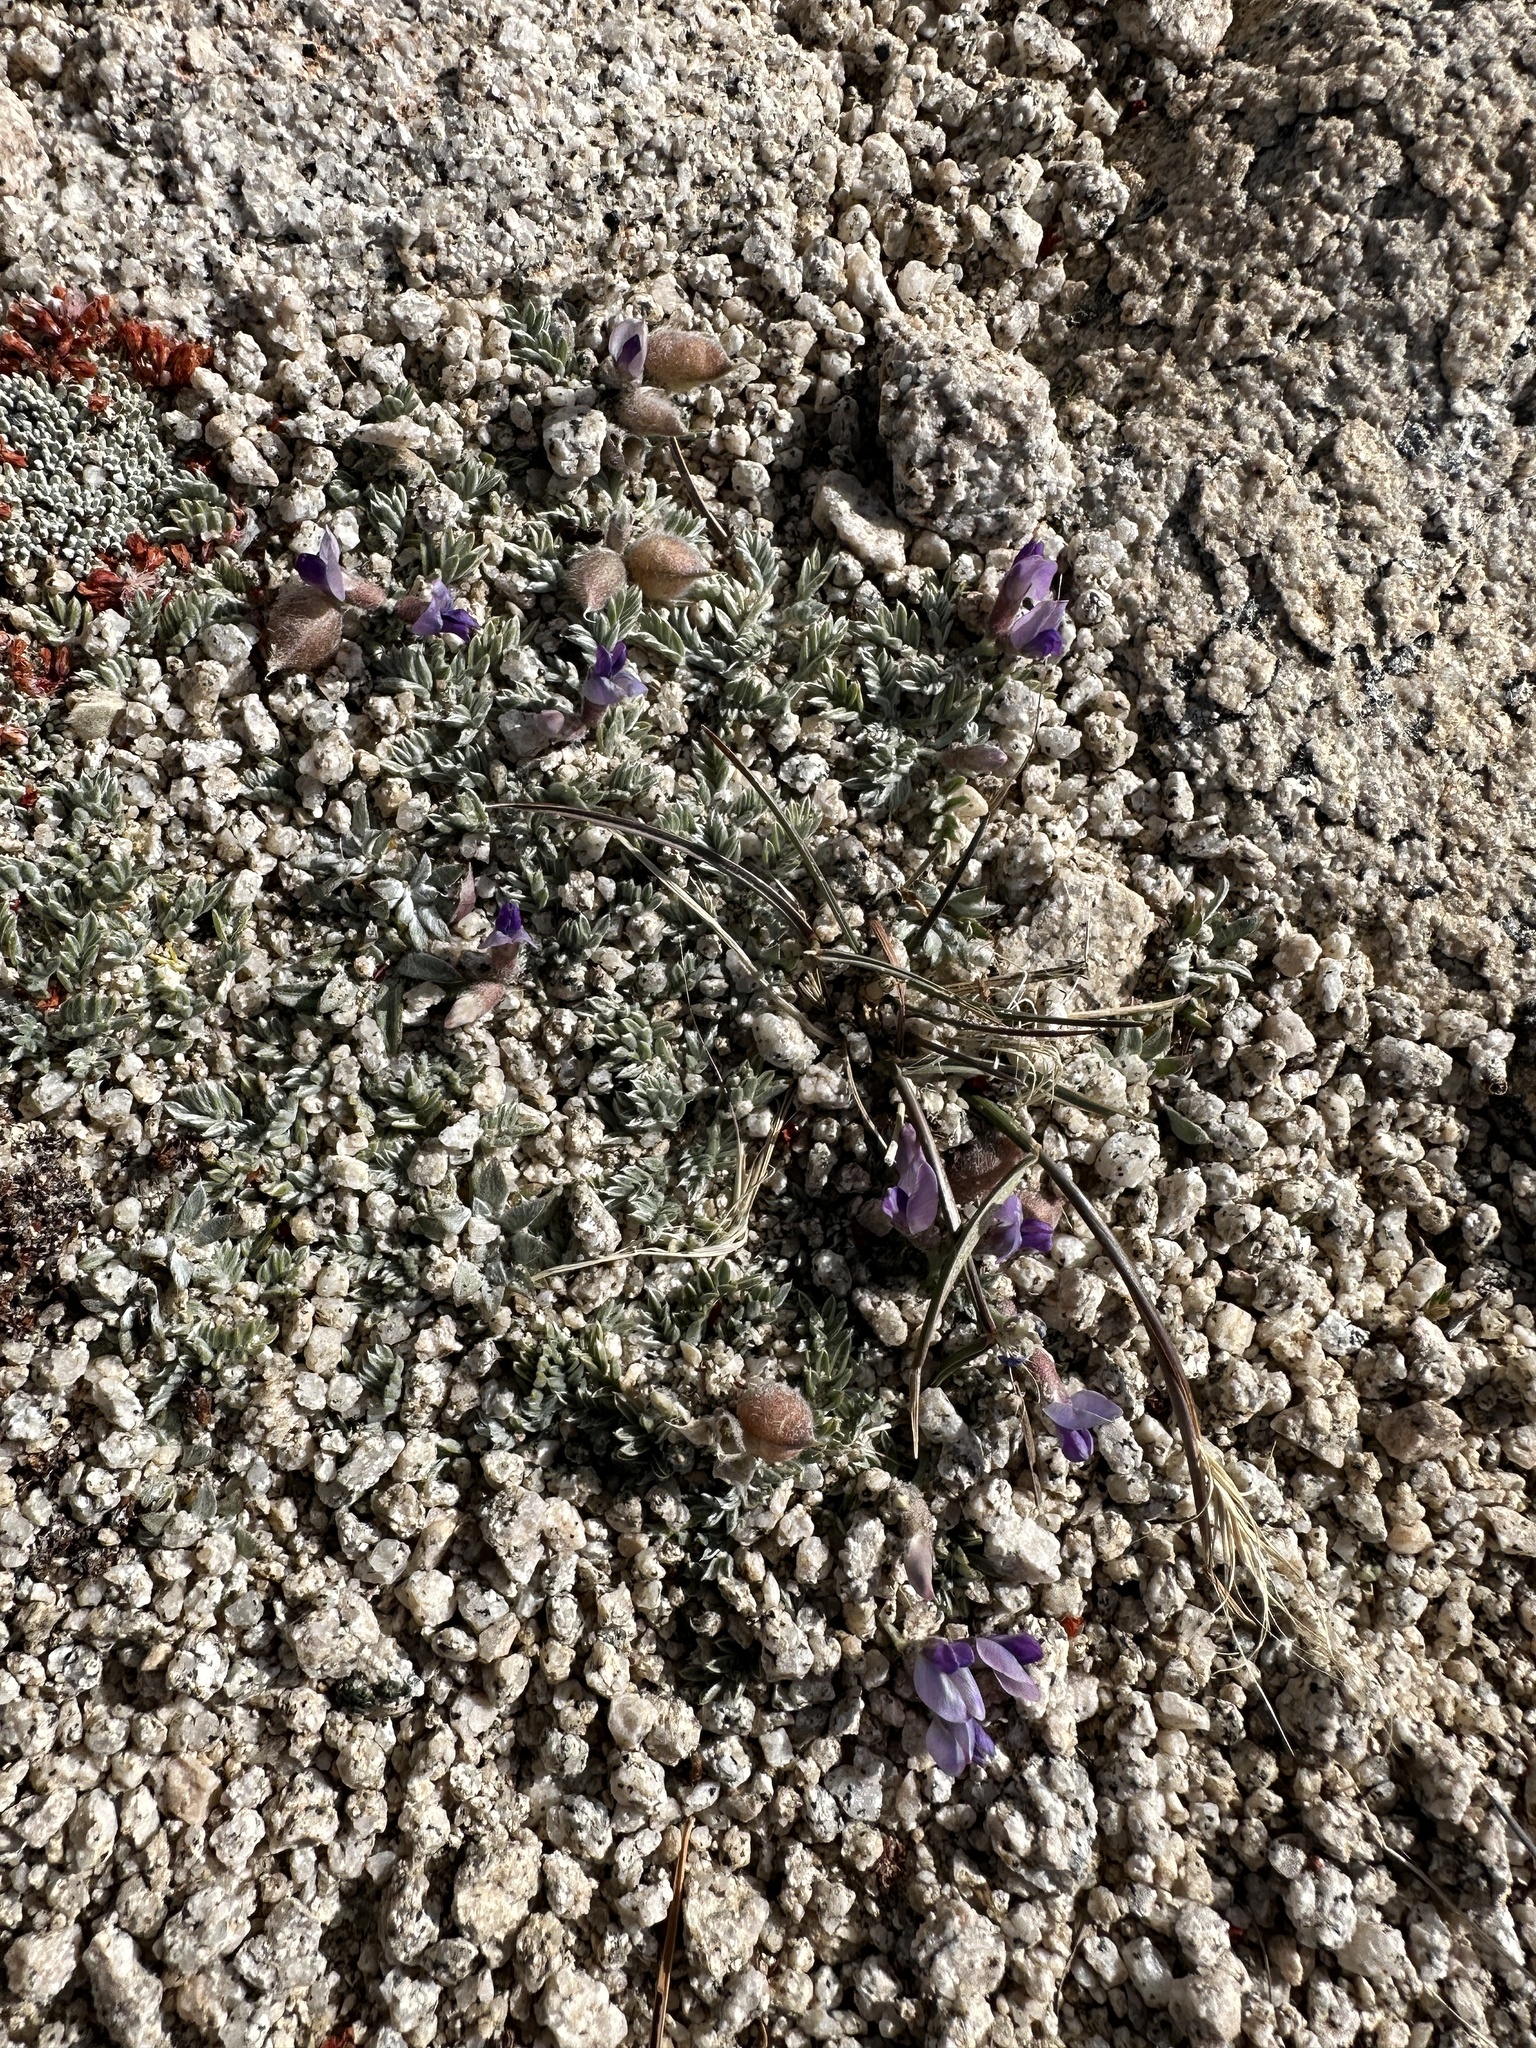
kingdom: Plantae
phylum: Tracheophyta
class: Magnoliopsida
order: Fabales
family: Fabaceae
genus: Oxytropis
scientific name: Oxytropis oreophila
